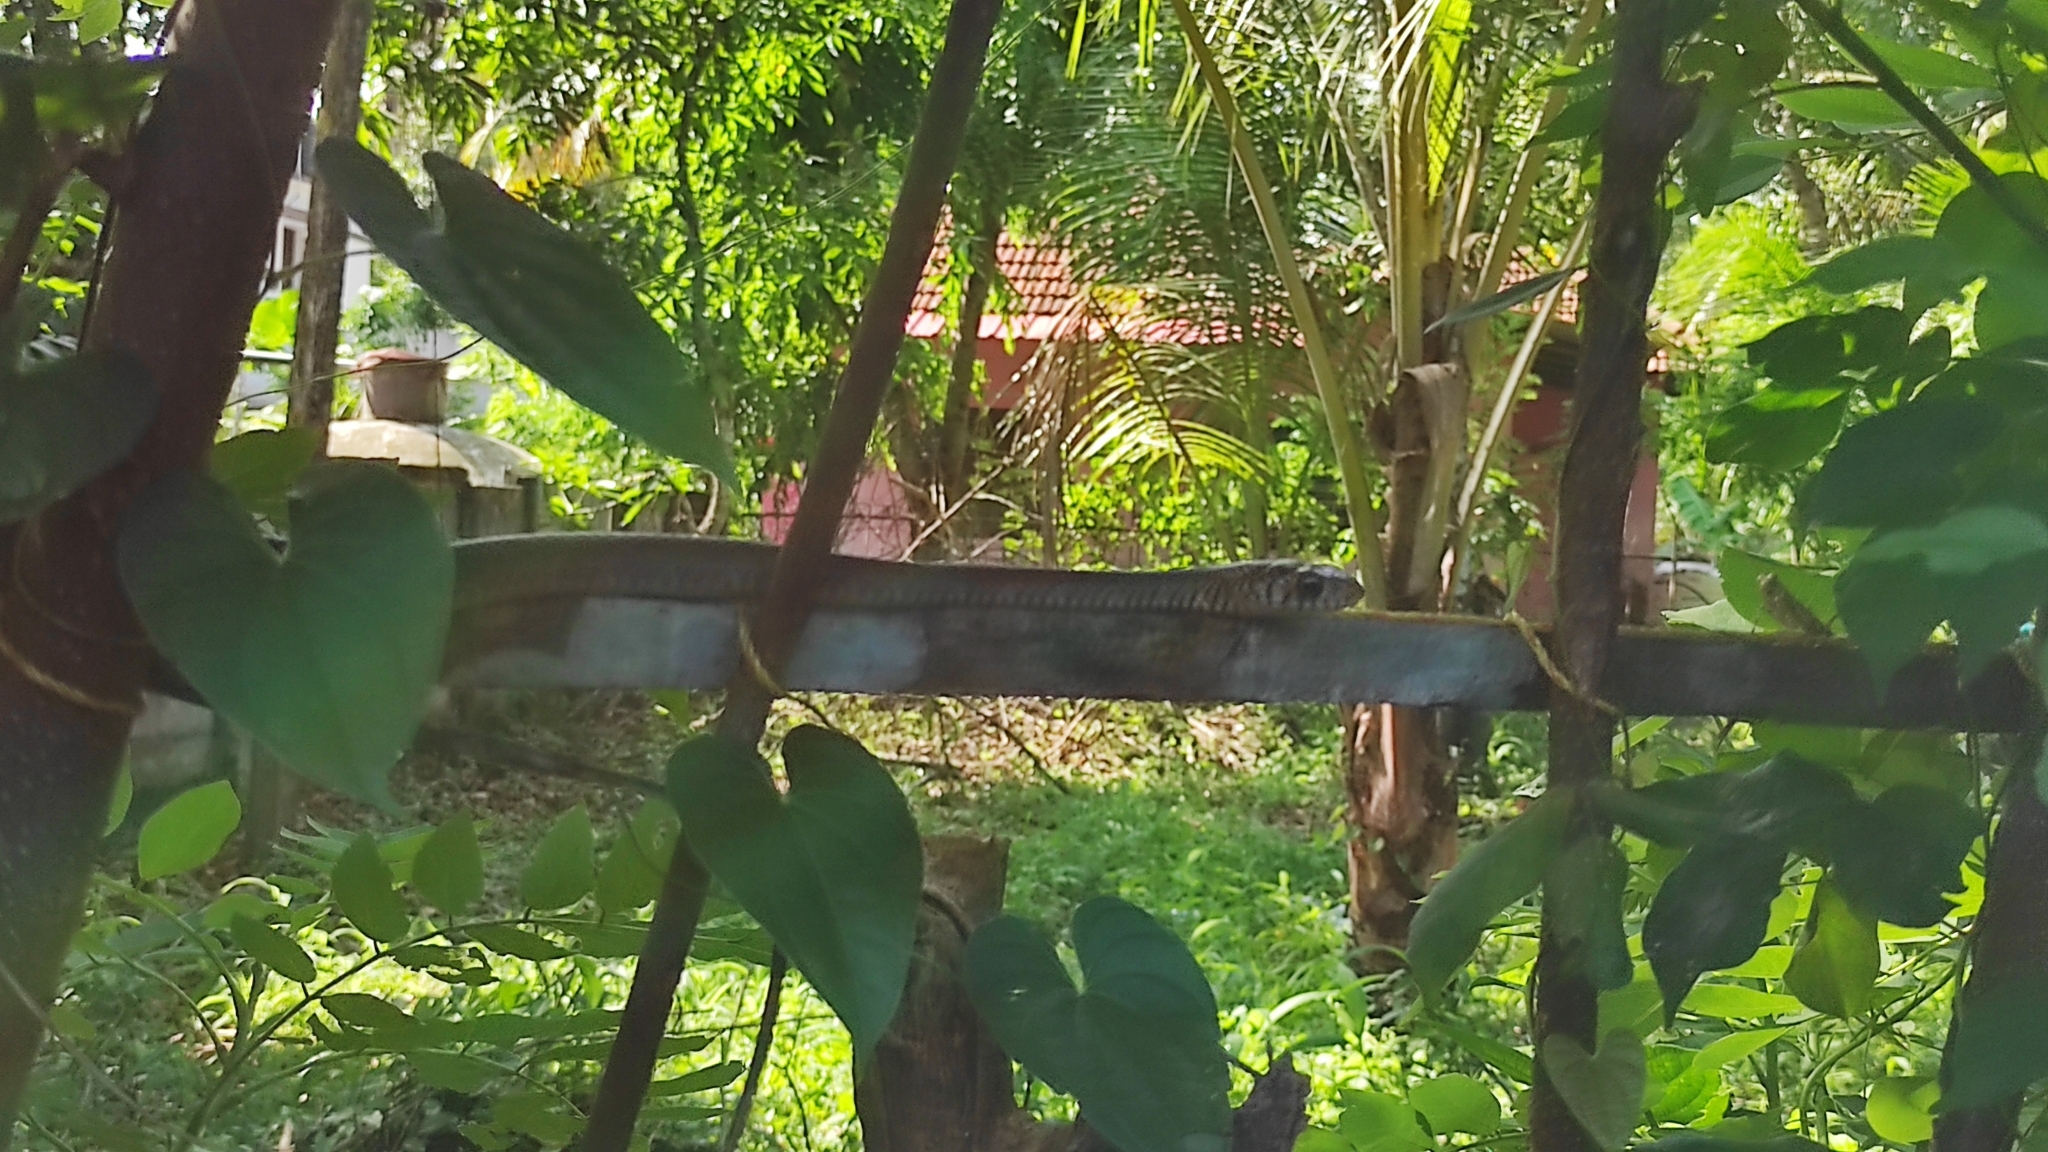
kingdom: Animalia
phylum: Chordata
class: Squamata
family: Colubridae
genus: Ptyas
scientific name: Ptyas mucosa
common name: Oriental ratsnake
